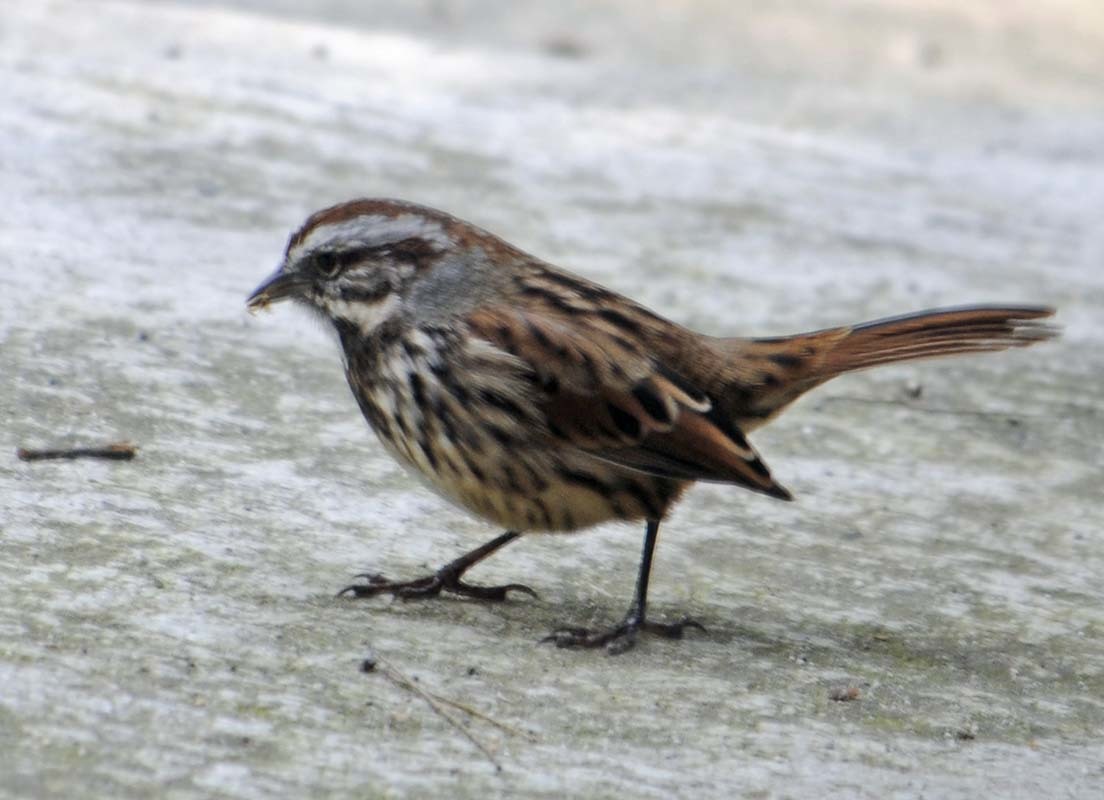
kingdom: Animalia
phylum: Chordata
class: Aves
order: Passeriformes
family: Passerellidae
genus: Melospiza
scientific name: Melospiza melodia
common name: Song sparrow
